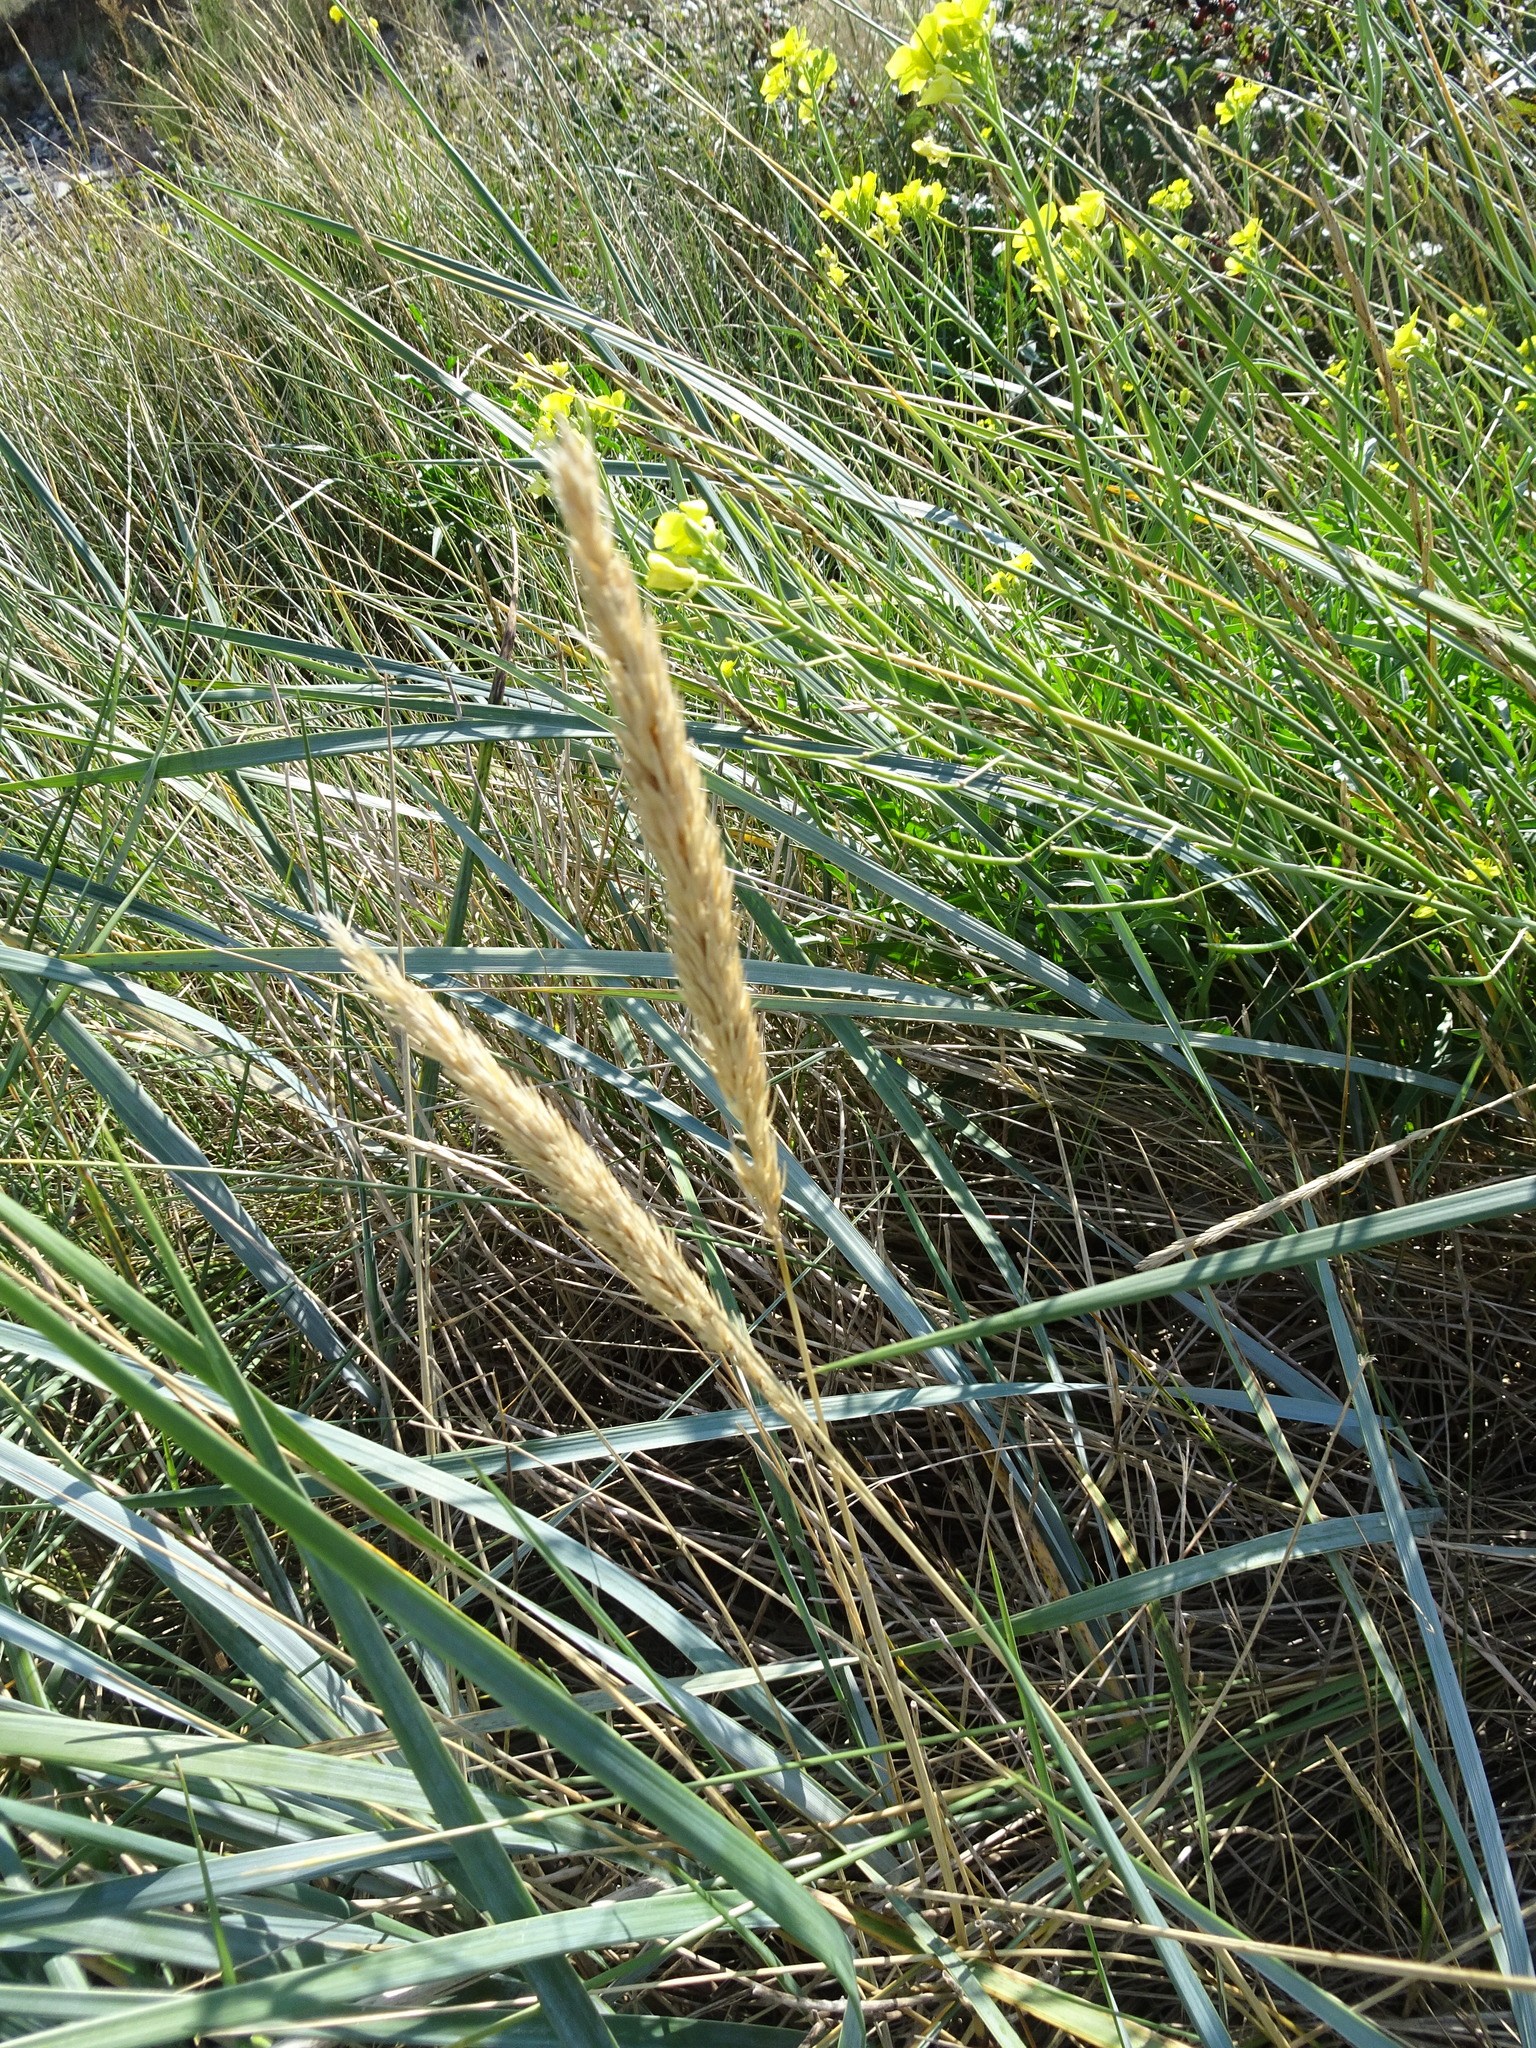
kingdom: Plantae
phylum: Tracheophyta
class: Liliopsida
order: Poales
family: Poaceae
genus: Leymus
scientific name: Leymus arenarius
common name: Lyme-grass
